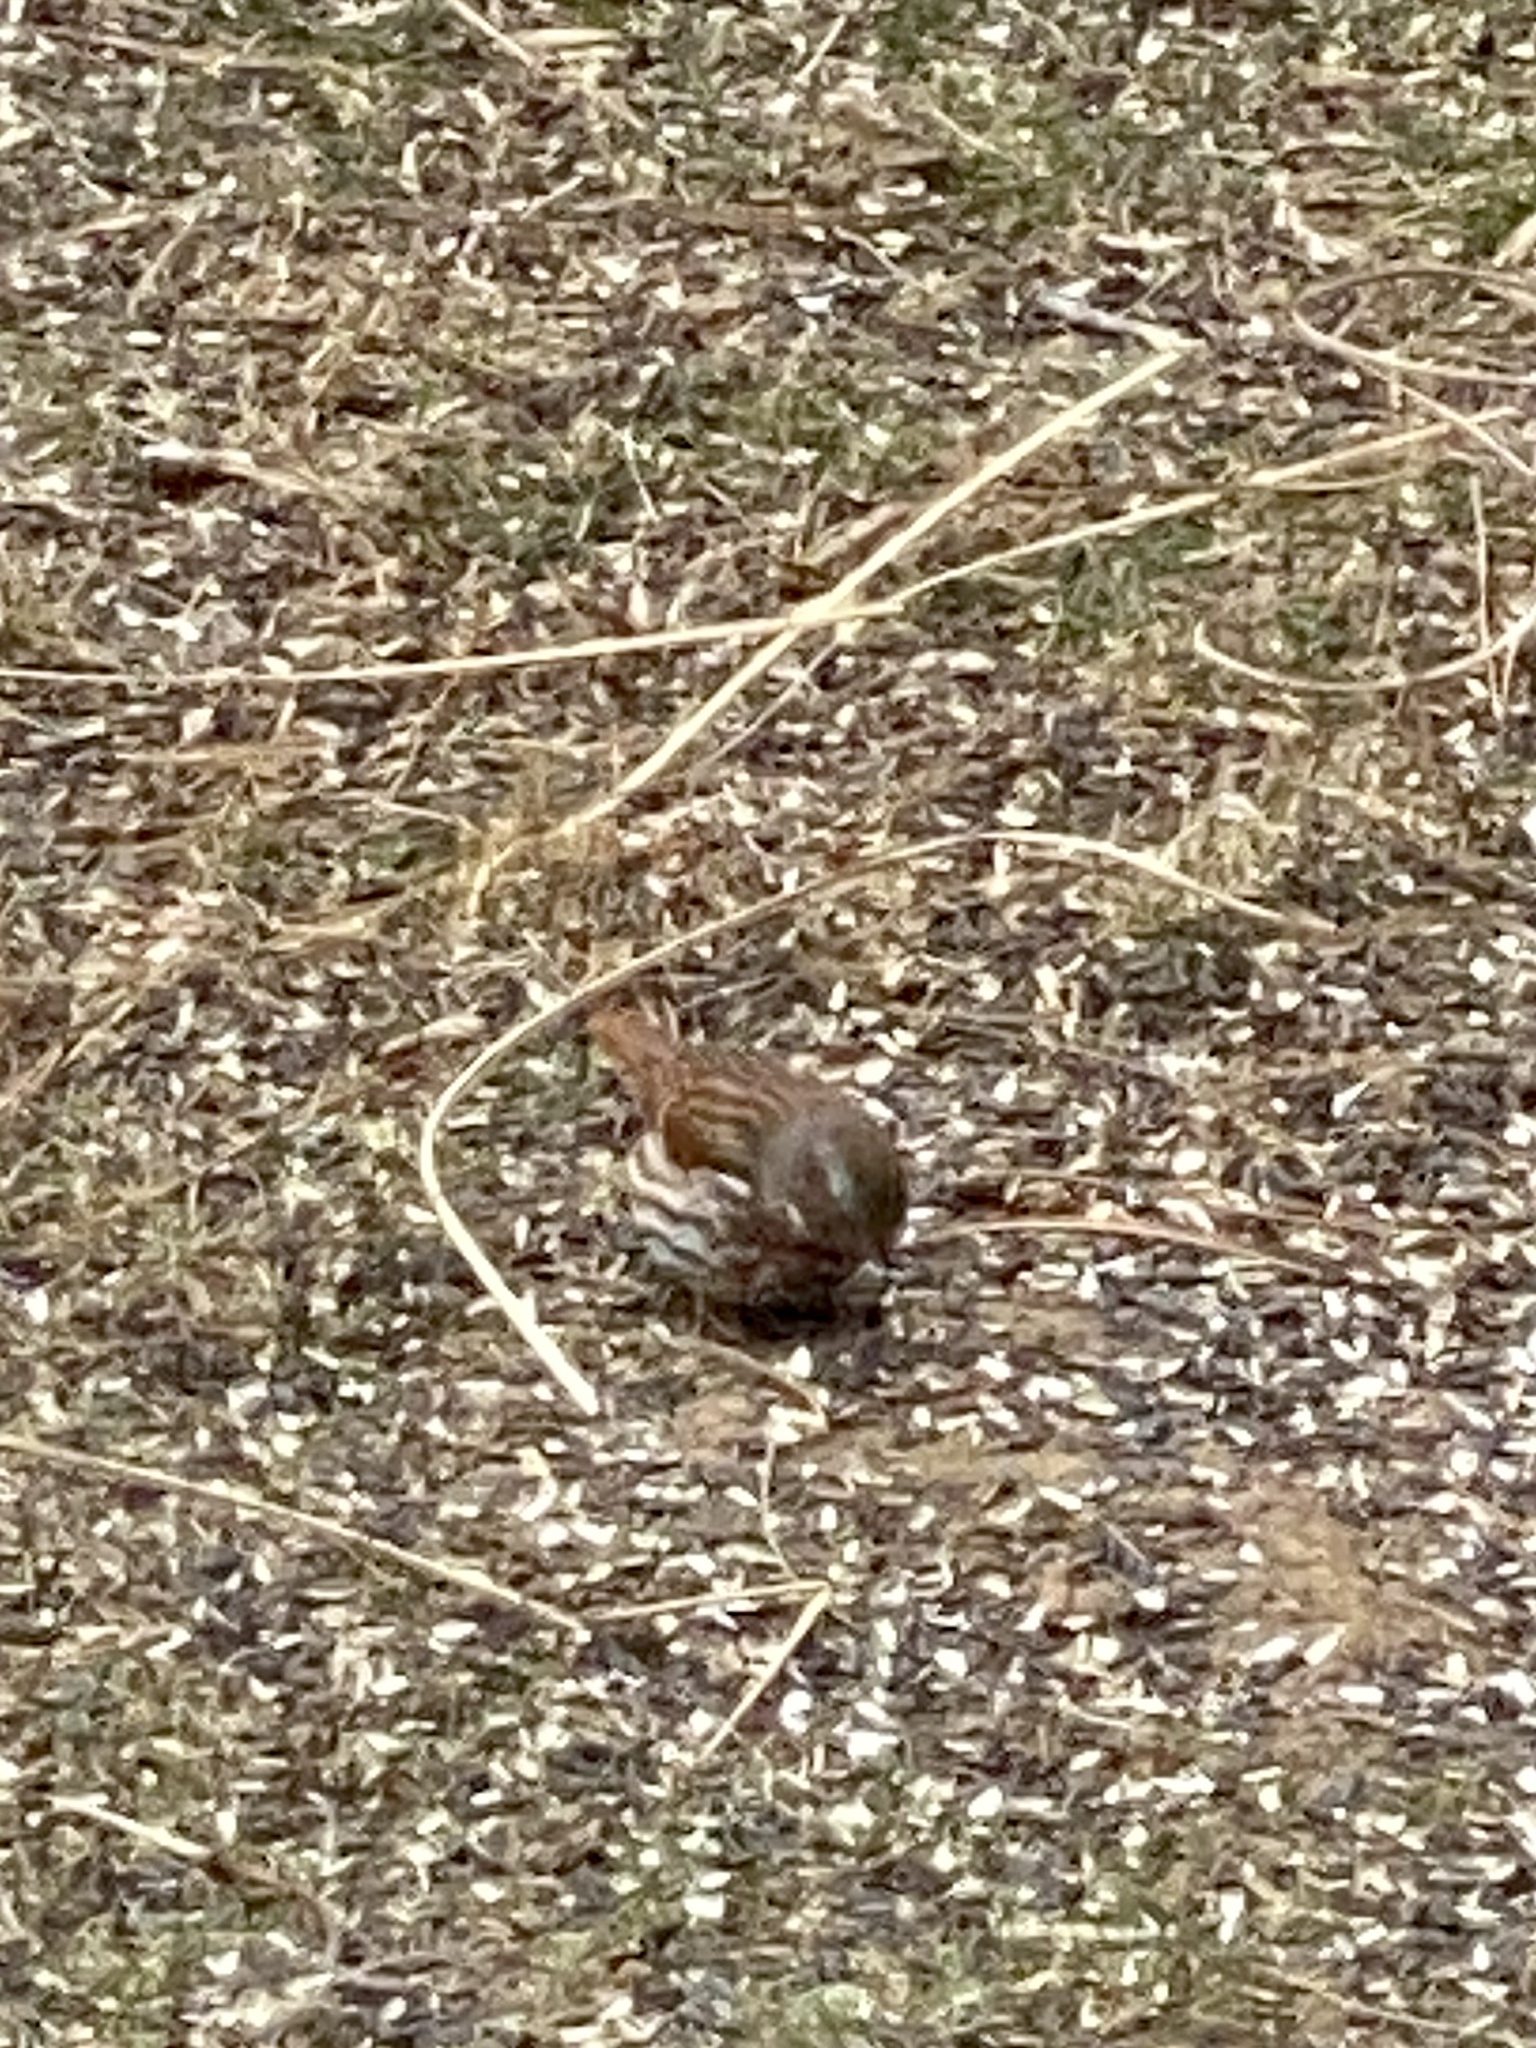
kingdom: Animalia
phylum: Chordata
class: Aves
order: Passeriformes
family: Passerellidae
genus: Passerella
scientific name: Passerella iliaca
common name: Fox sparrow
